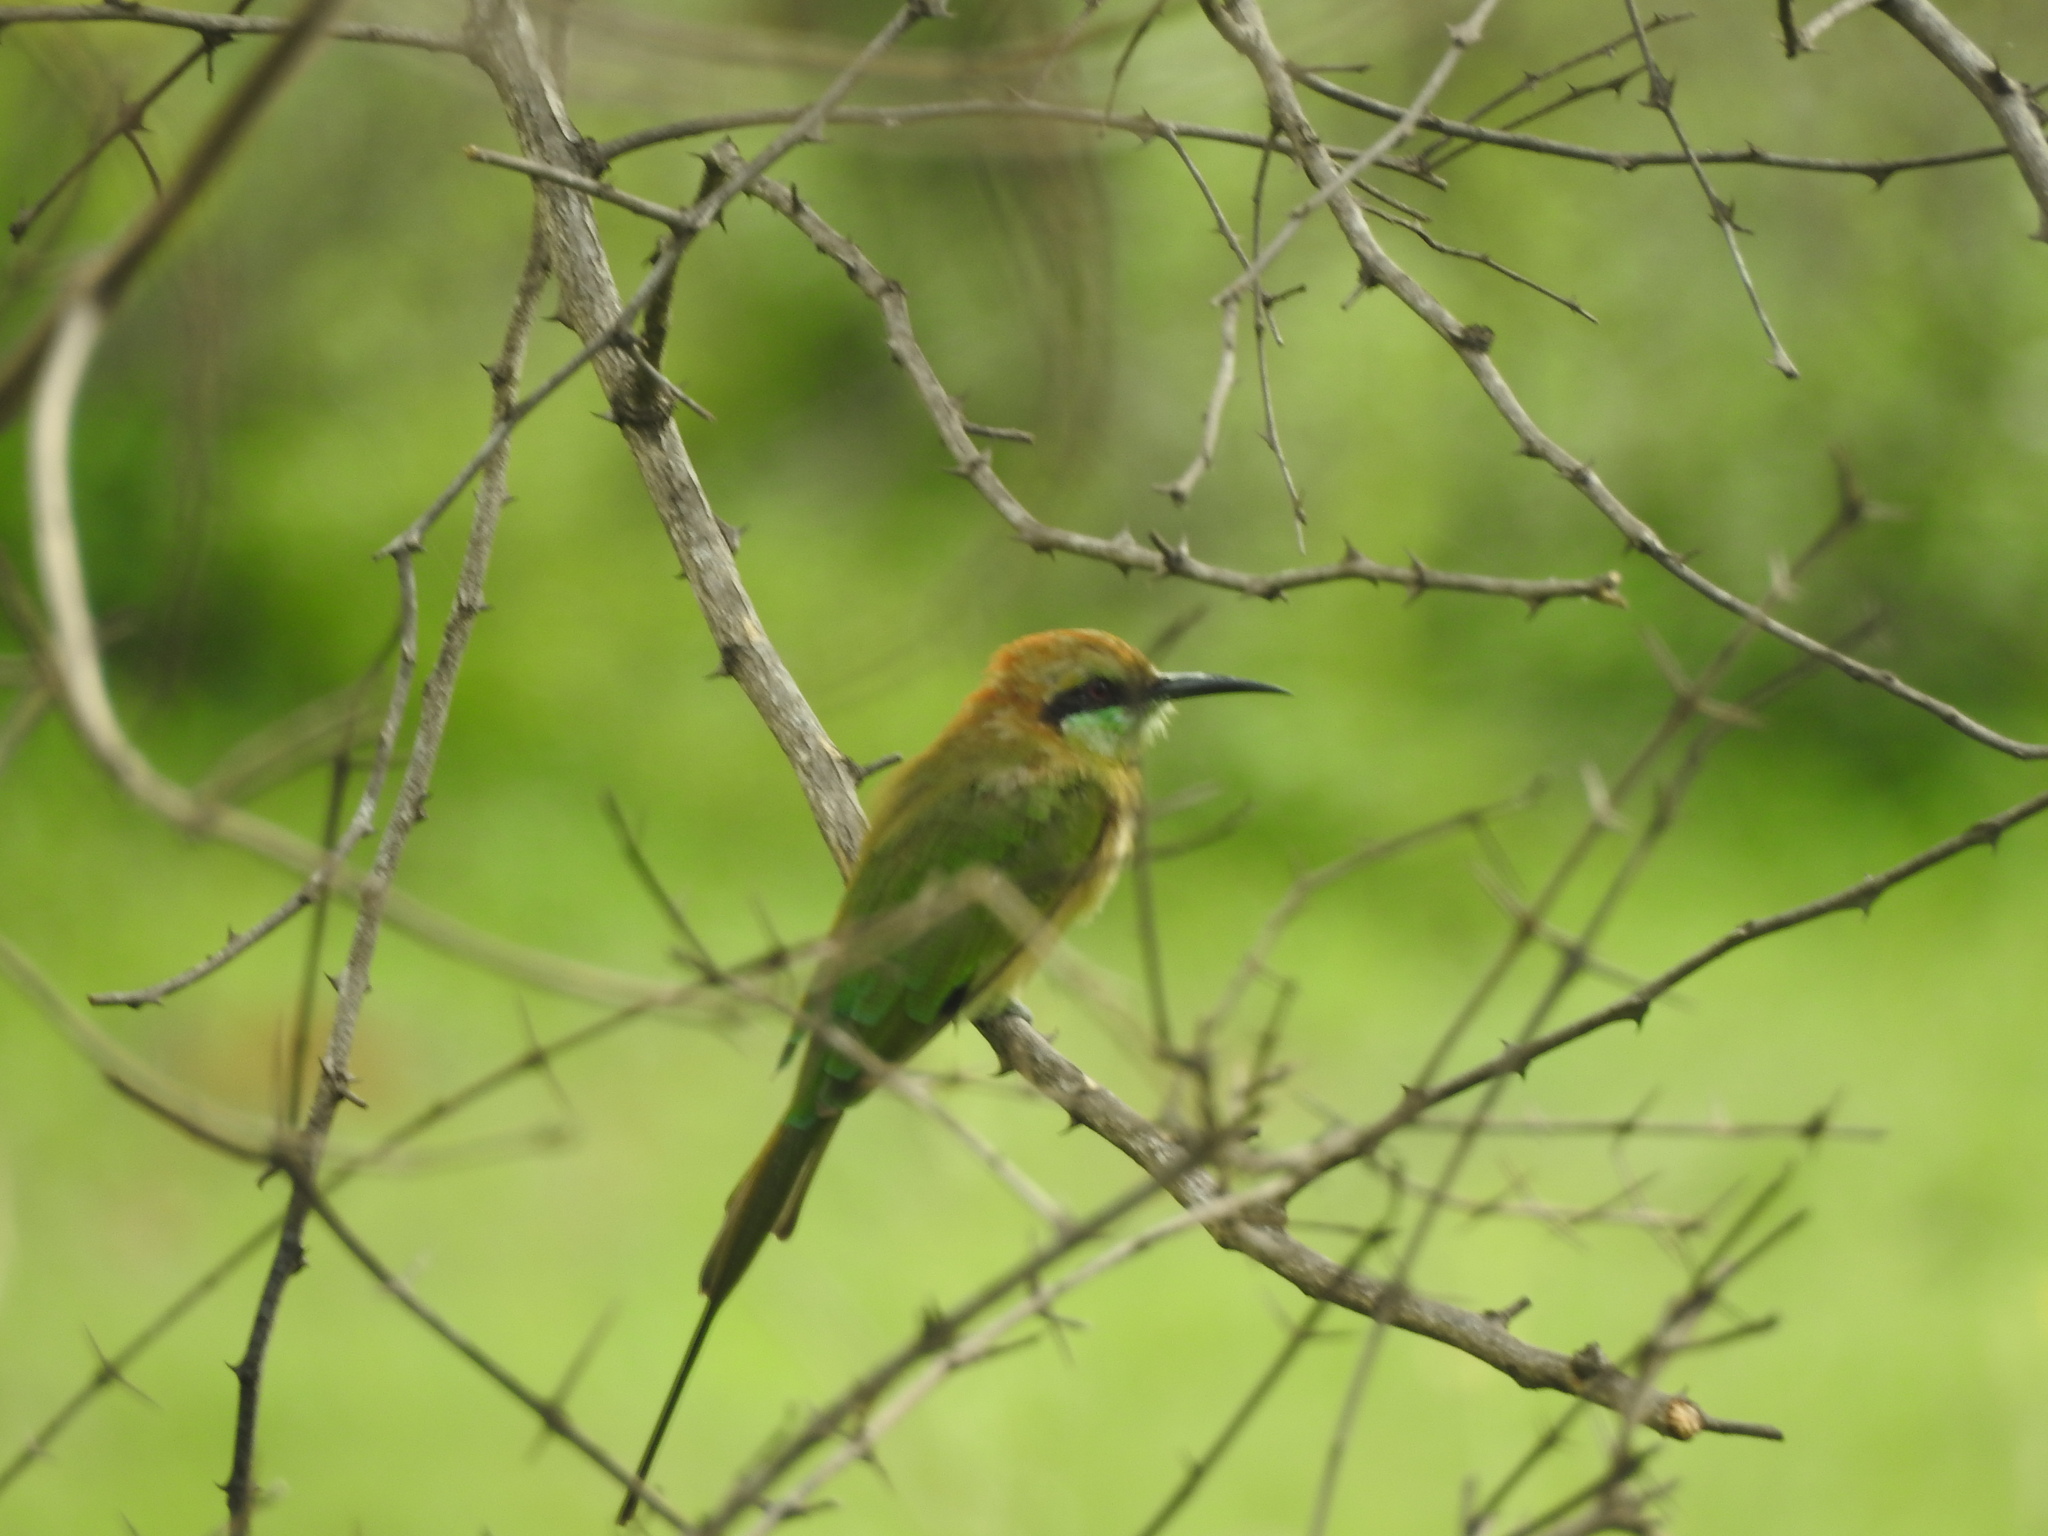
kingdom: Animalia
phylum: Chordata
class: Aves
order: Coraciiformes
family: Meropidae
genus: Merops
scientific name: Merops orientalis
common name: Green bee-eater
